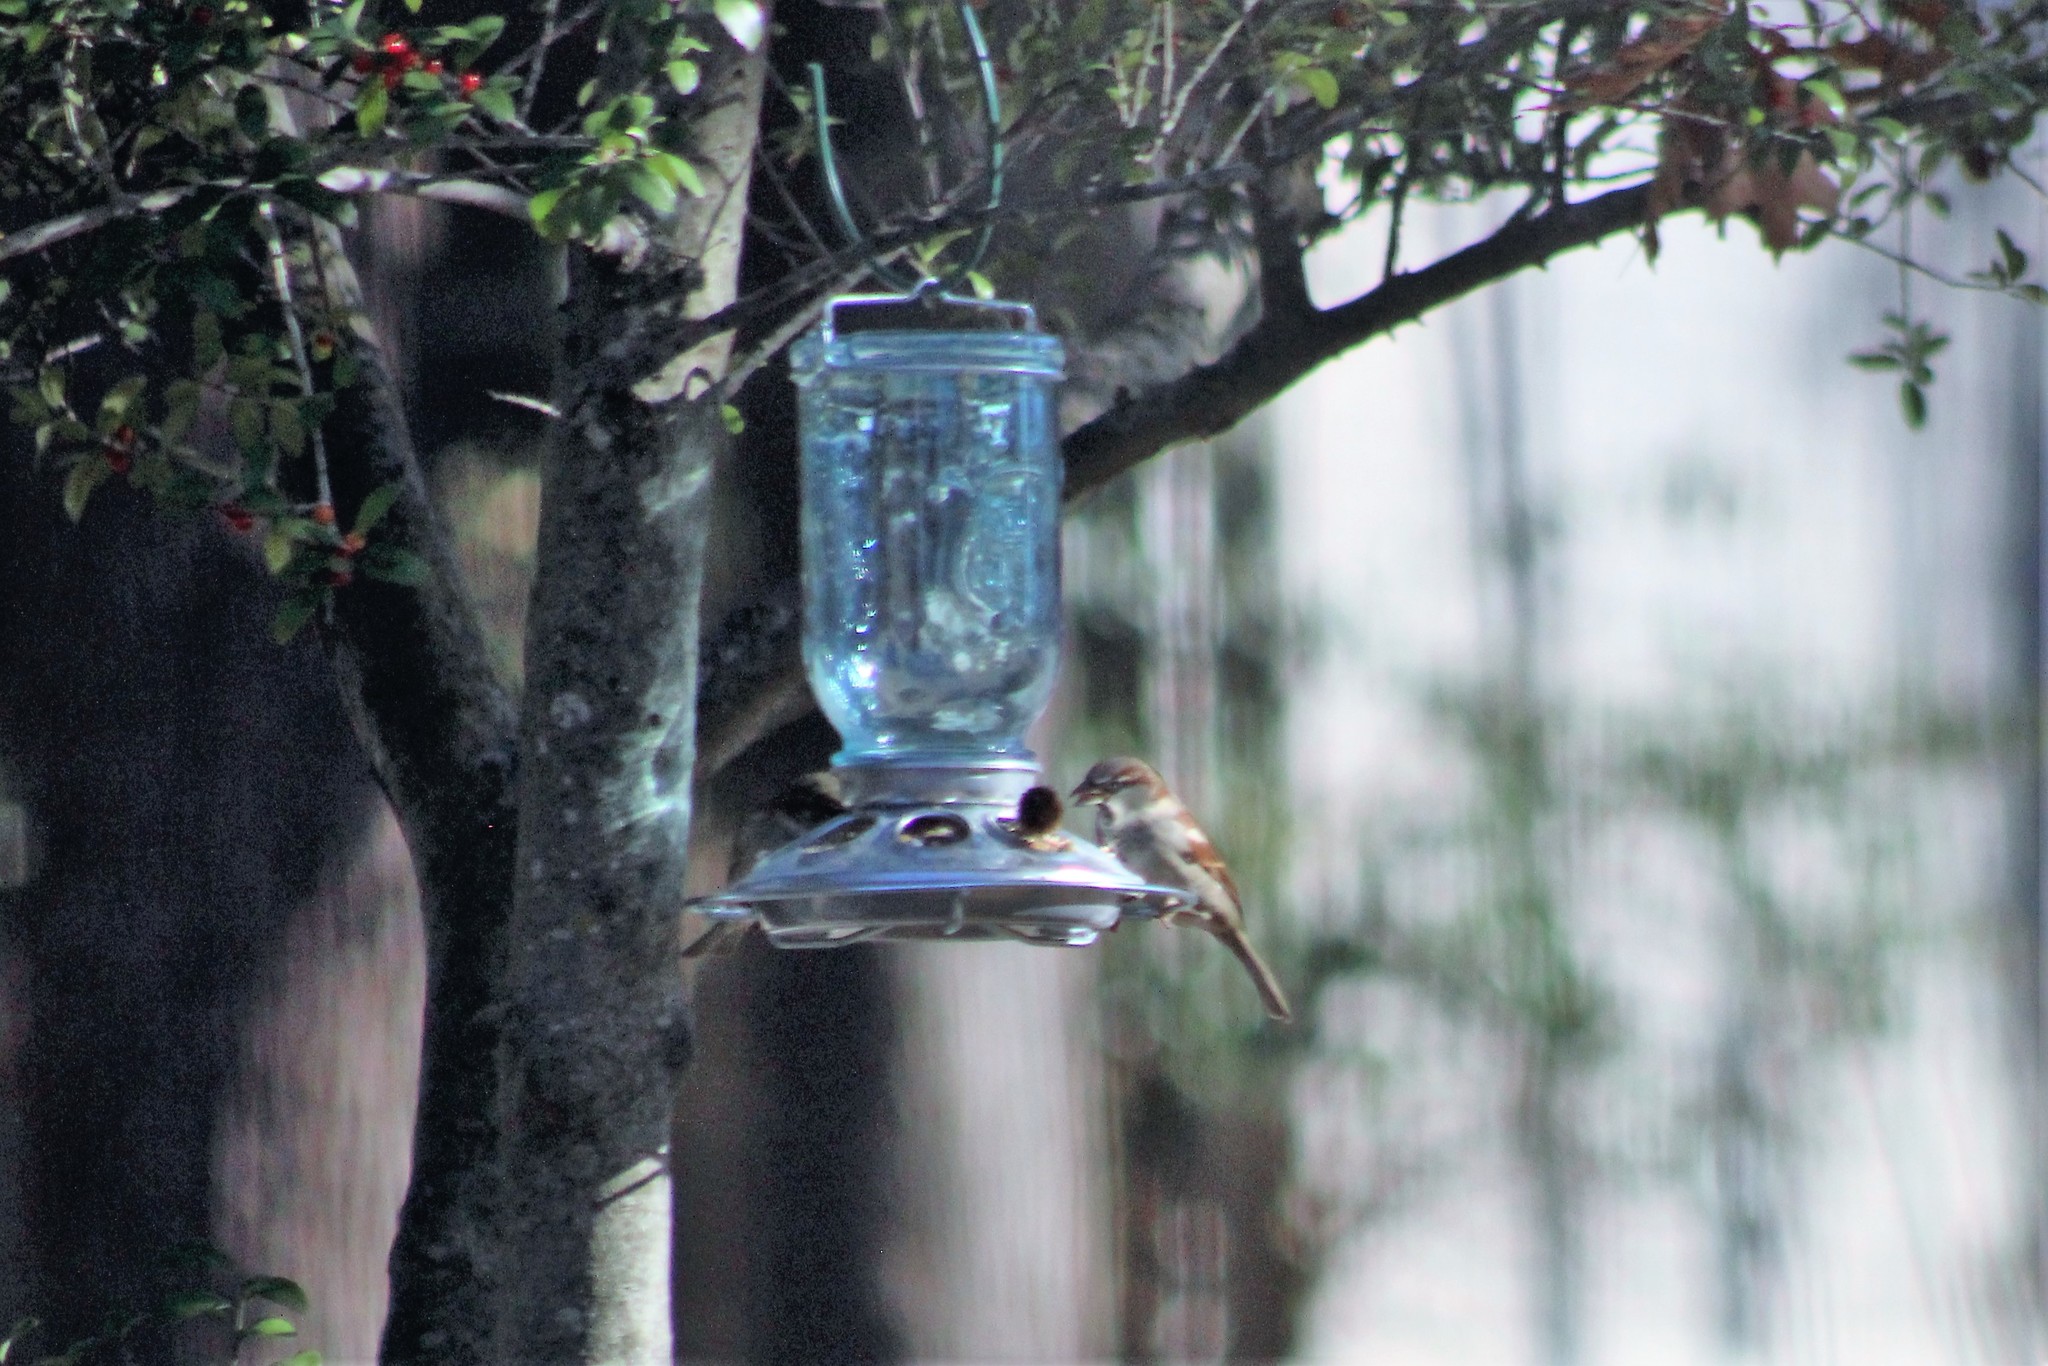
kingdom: Animalia
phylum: Chordata
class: Aves
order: Passeriformes
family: Passeridae
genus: Passer
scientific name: Passer domesticus
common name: House sparrow
